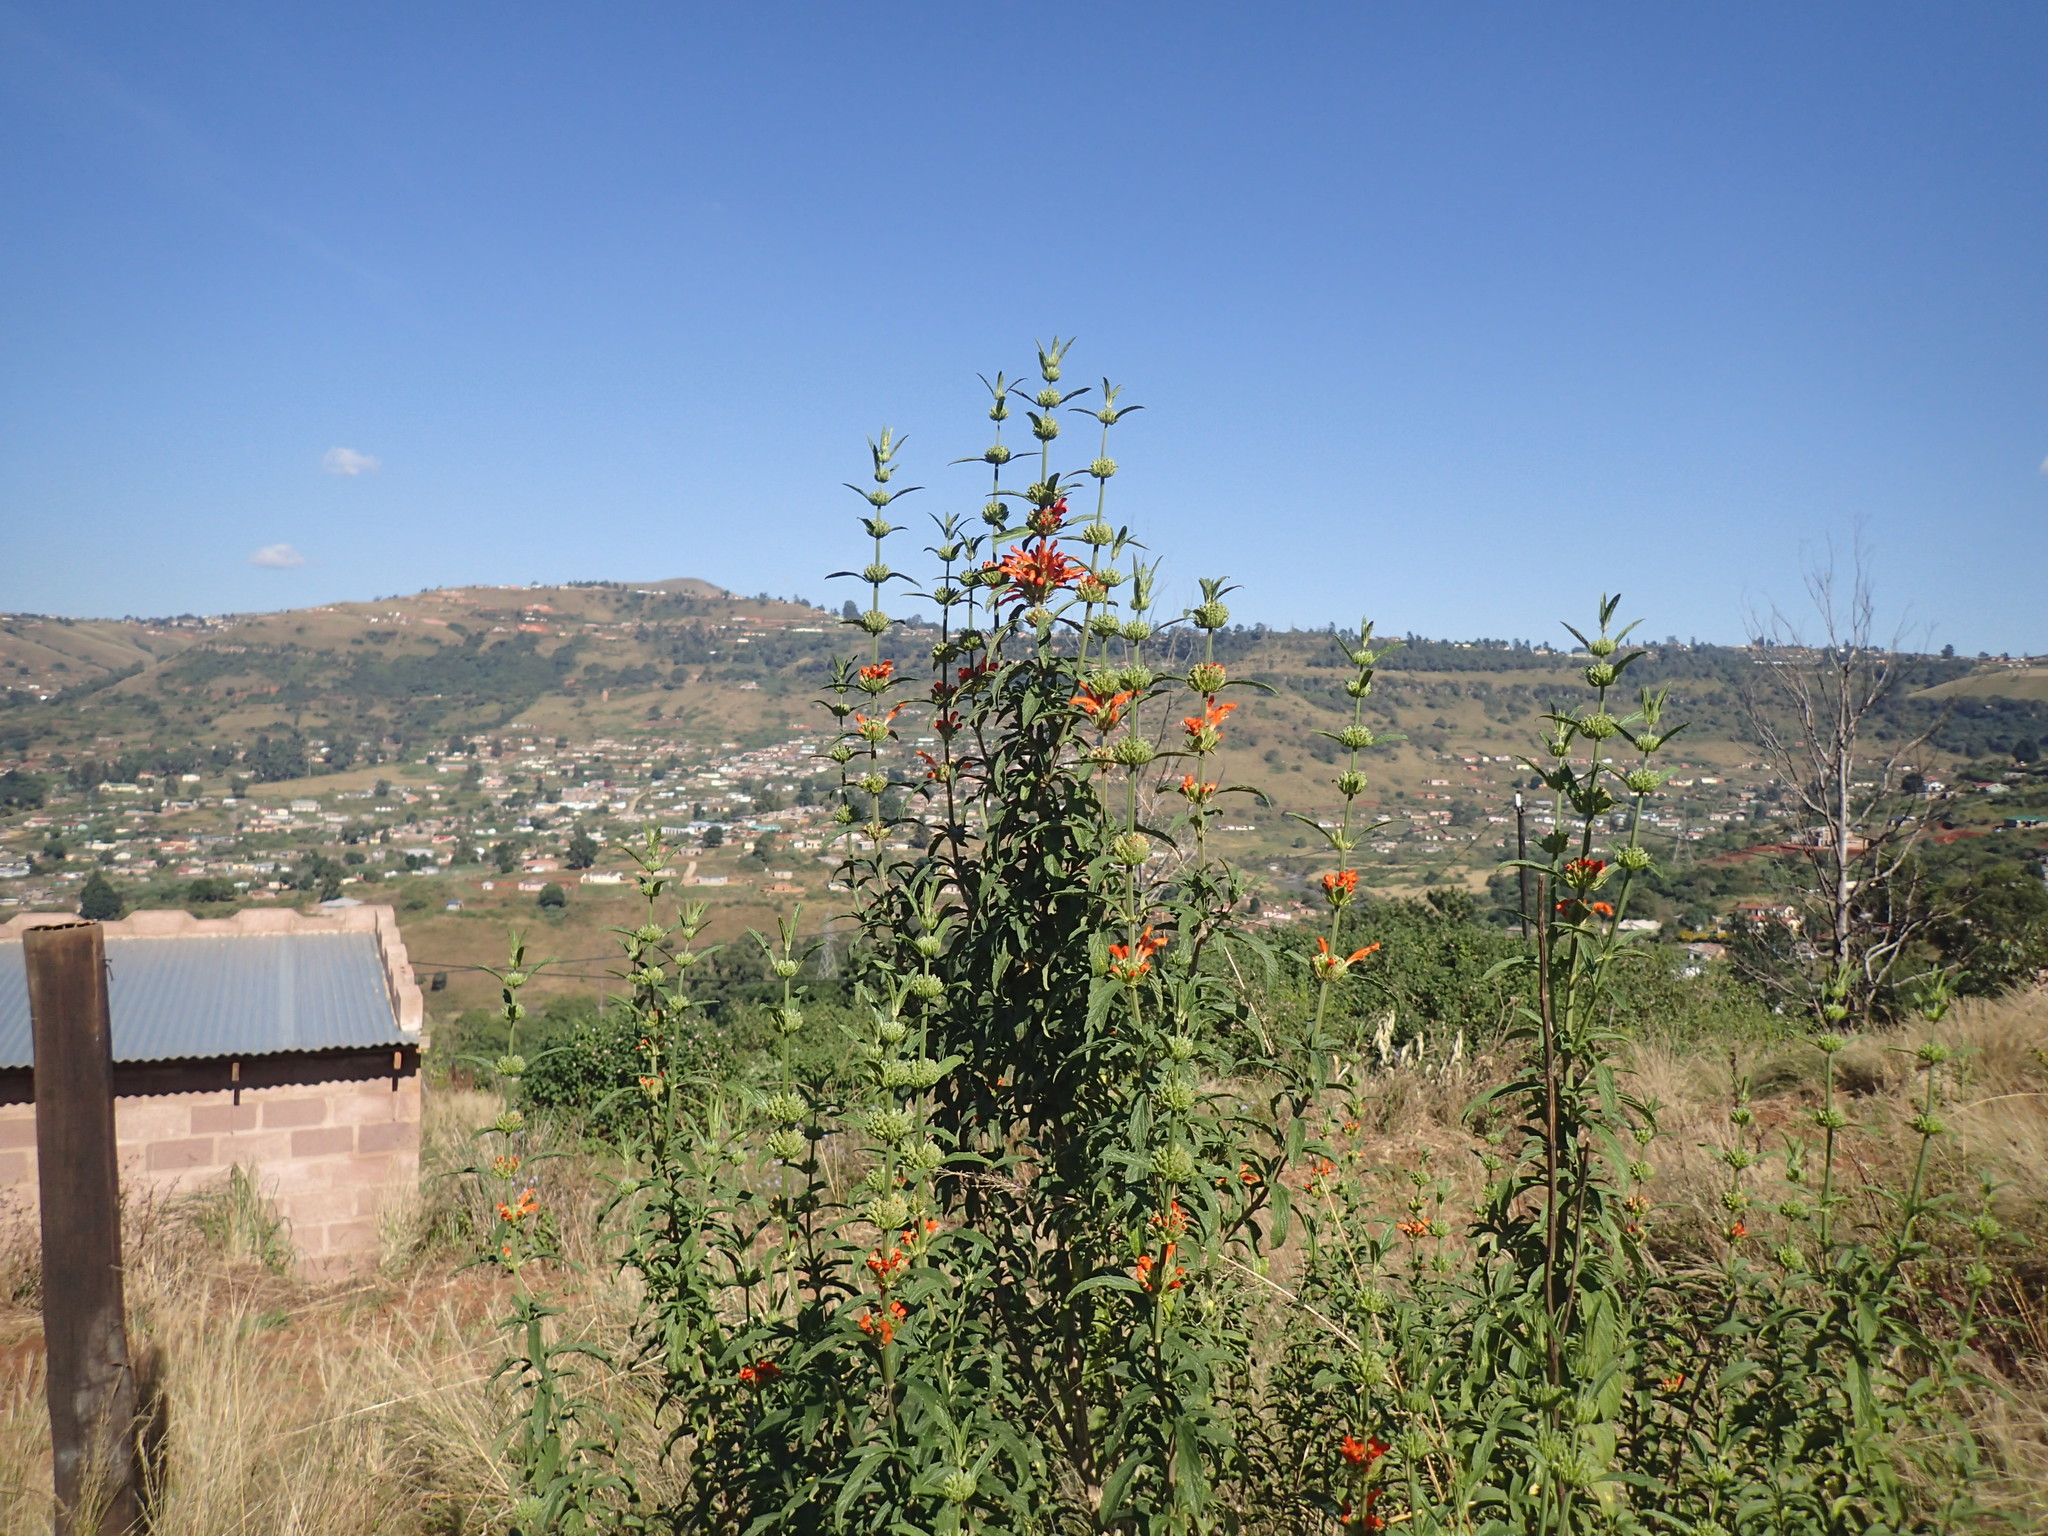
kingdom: Plantae
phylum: Tracheophyta
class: Magnoliopsida
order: Lamiales
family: Lamiaceae
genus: Leonotis
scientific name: Leonotis leonurus
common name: Lion's ear
